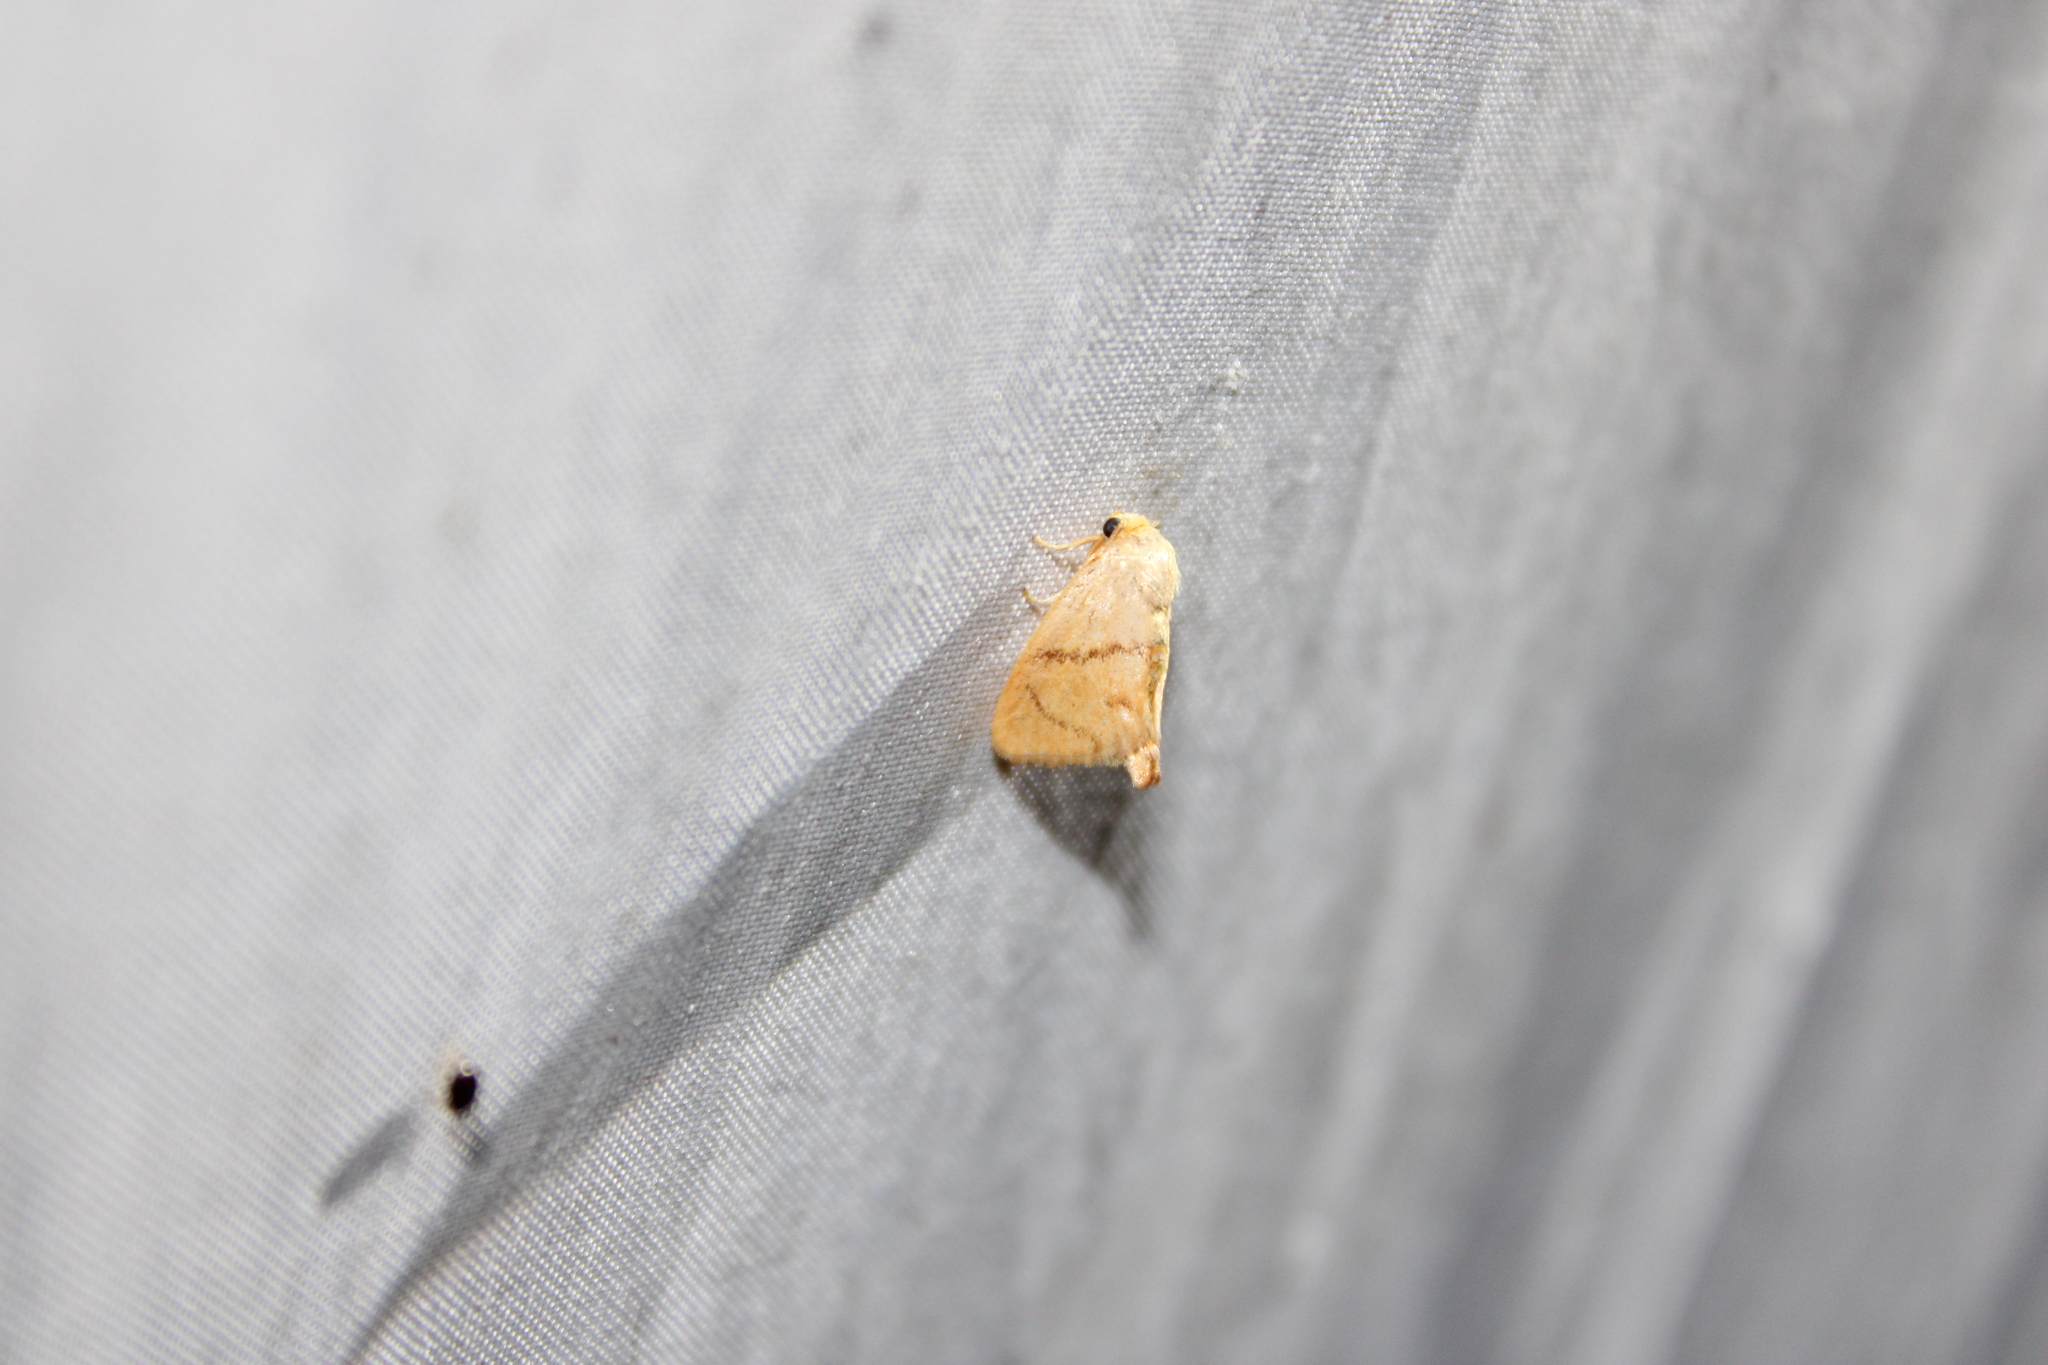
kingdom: Animalia
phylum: Arthropoda
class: Insecta
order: Lepidoptera
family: Limacodidae
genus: Tortricidia
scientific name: Tortricidia flexuosa
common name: Abbreviated button slug moth
